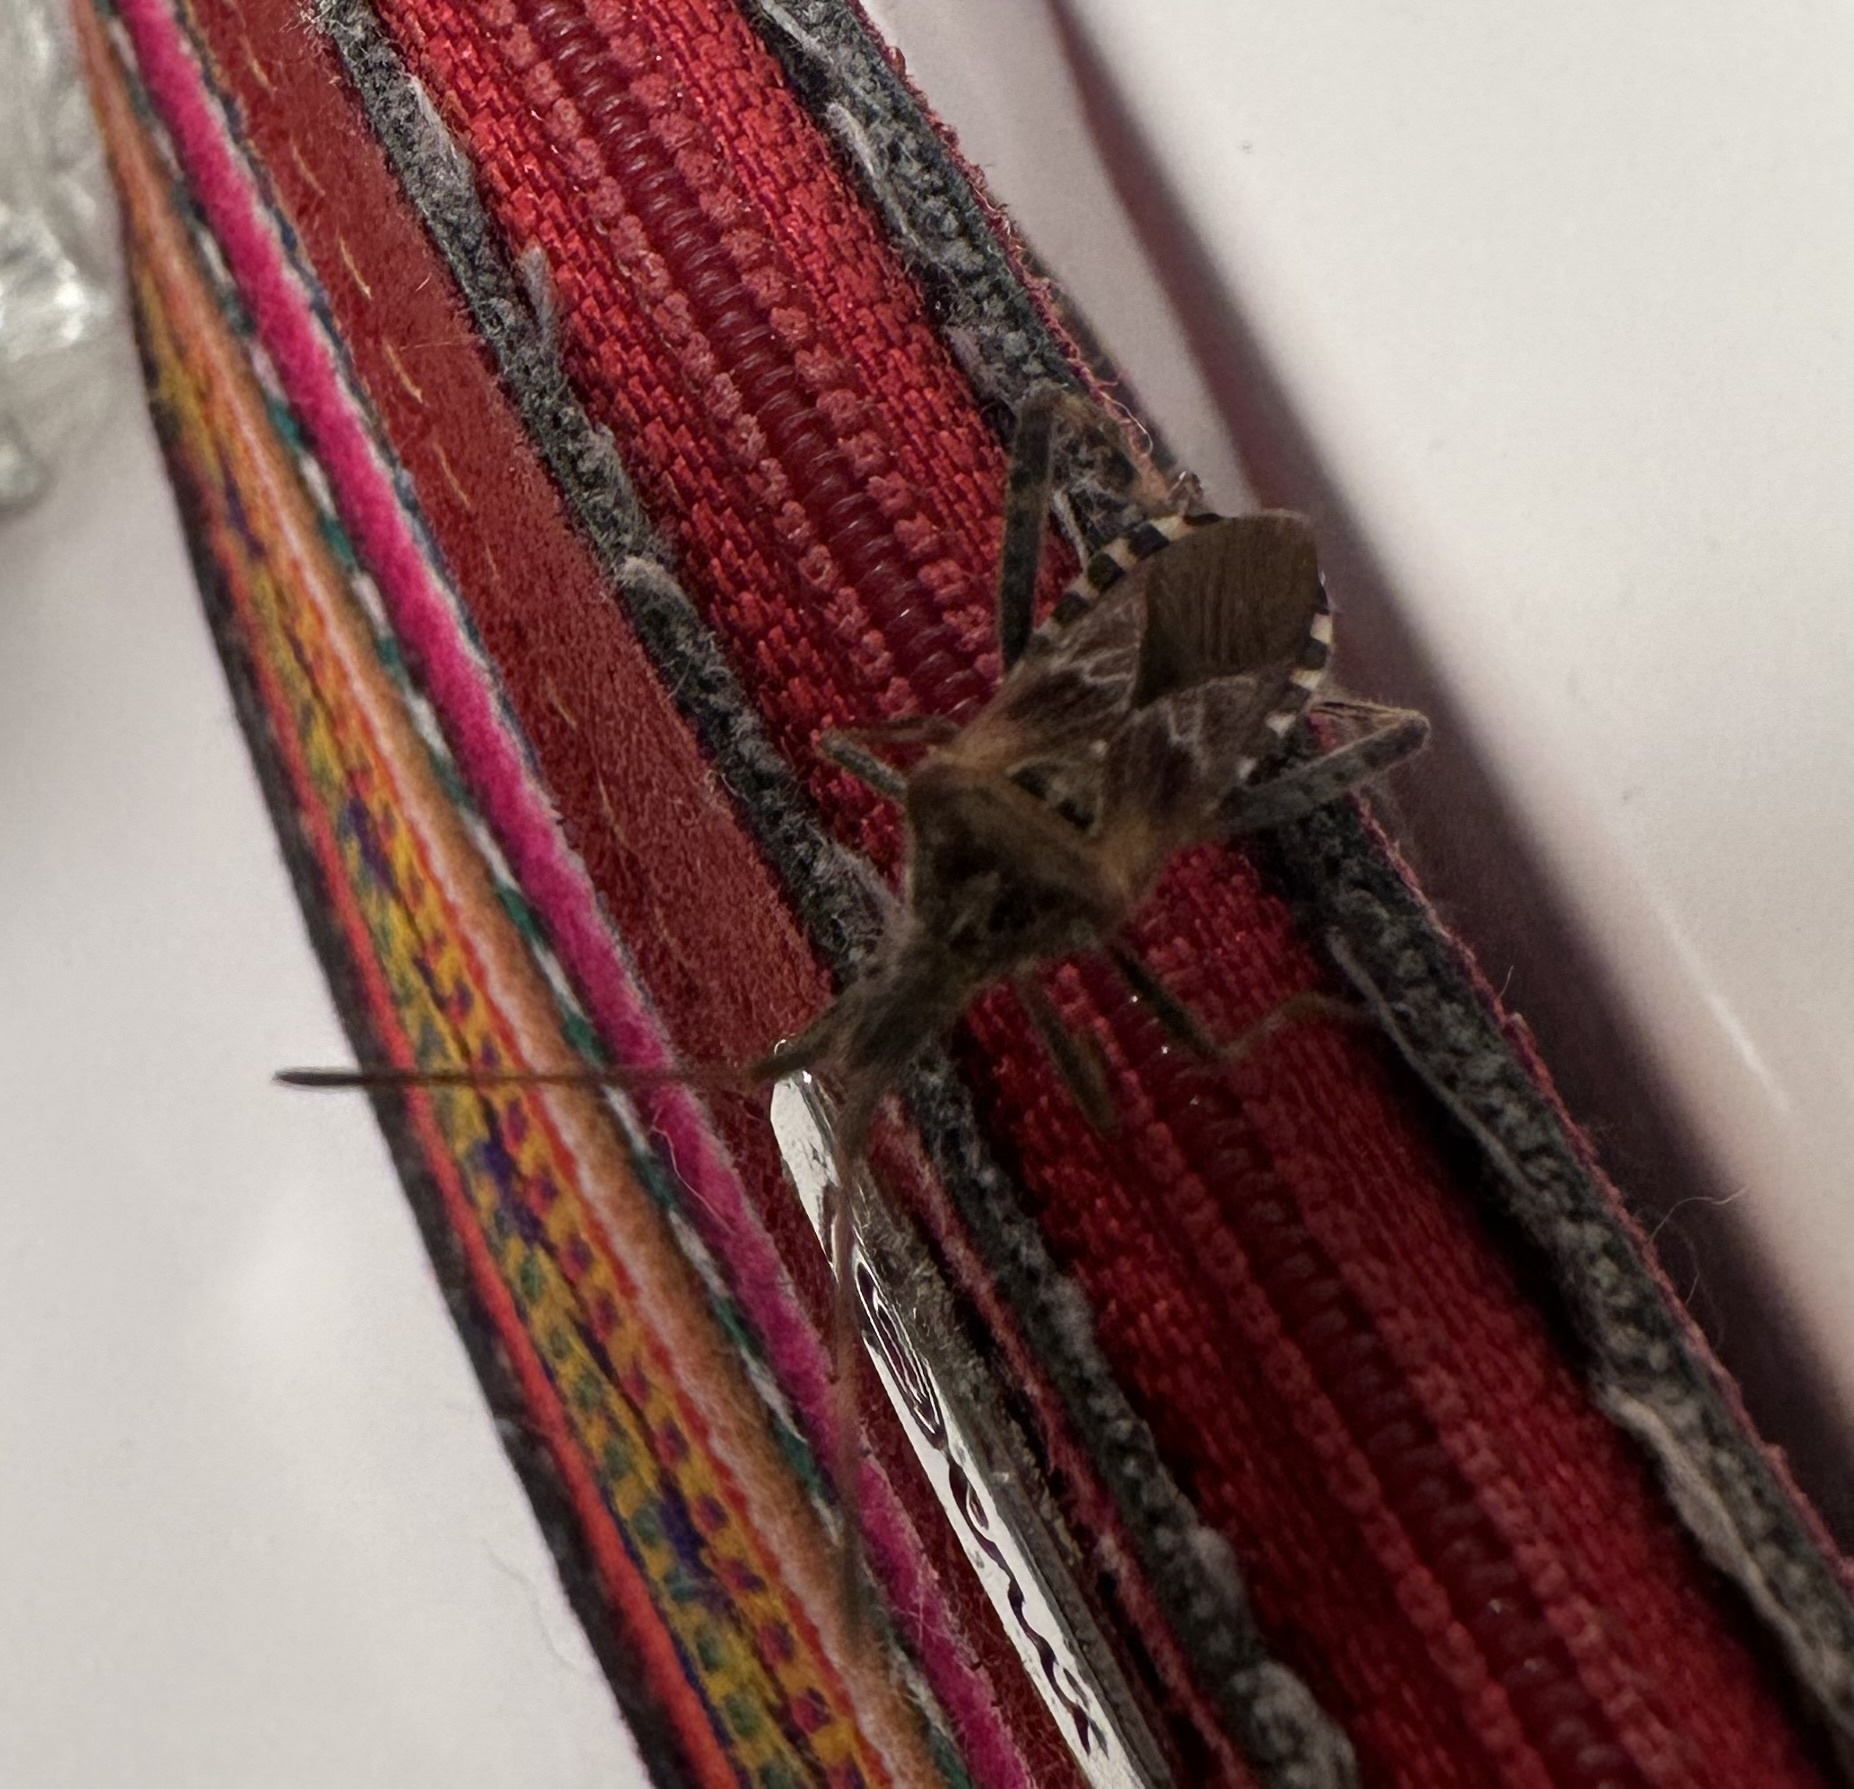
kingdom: Animalia
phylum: Arthropoda
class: Insecta
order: Hemiptera
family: Coreidae
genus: Leptoglossus
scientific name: Leptoglossus occidentalis
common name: Western conifer-seed bug
